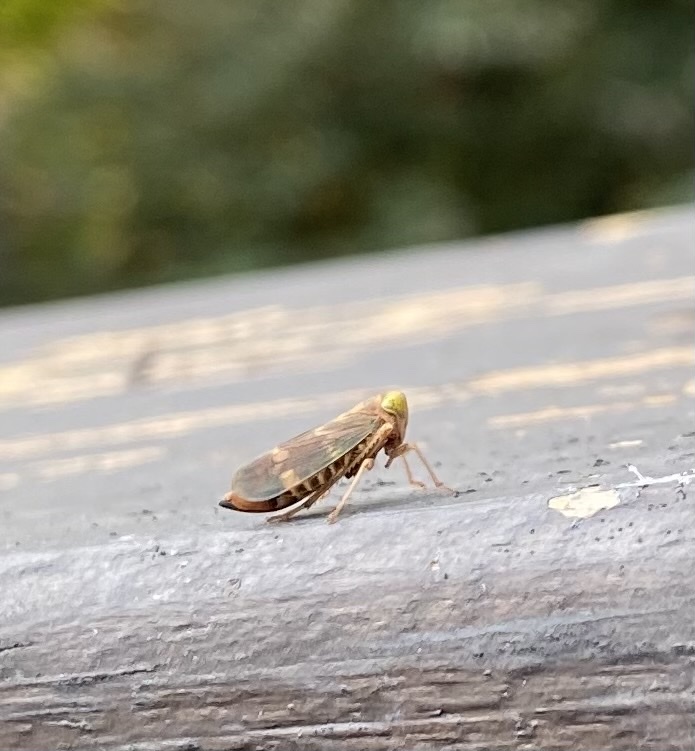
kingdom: Animalia
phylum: Arthropoda
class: Insecta
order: Hemiptera
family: Cicadellidae
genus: Jikradia
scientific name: Jikradia olitoria
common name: Coppery leafhopper
